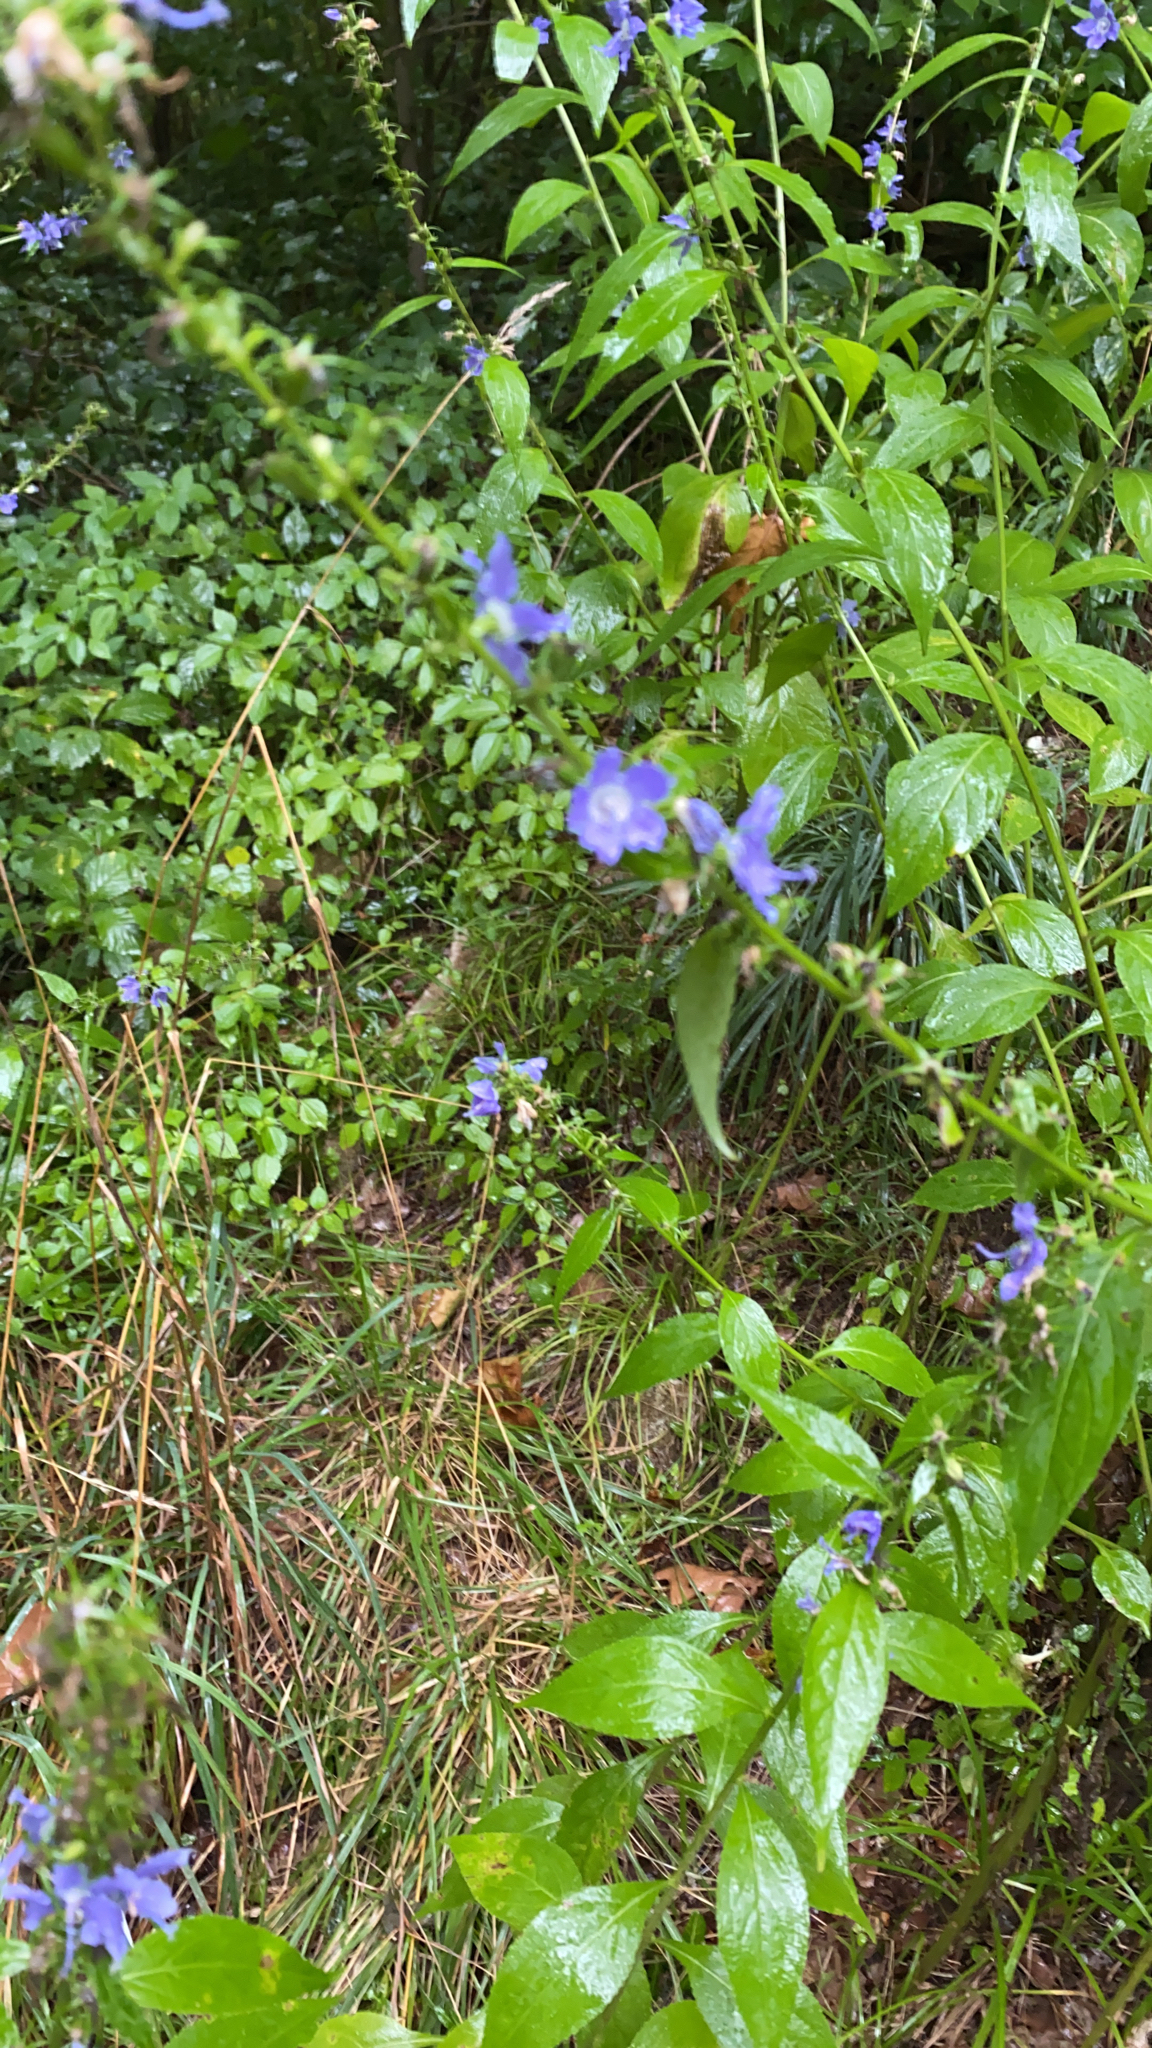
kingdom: Plantae
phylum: Tracheophyta
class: Magnoliopsida
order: Asterales
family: Campanulaceae
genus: Campanulastrum
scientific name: Campanulastrum americanum
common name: American bellflower
